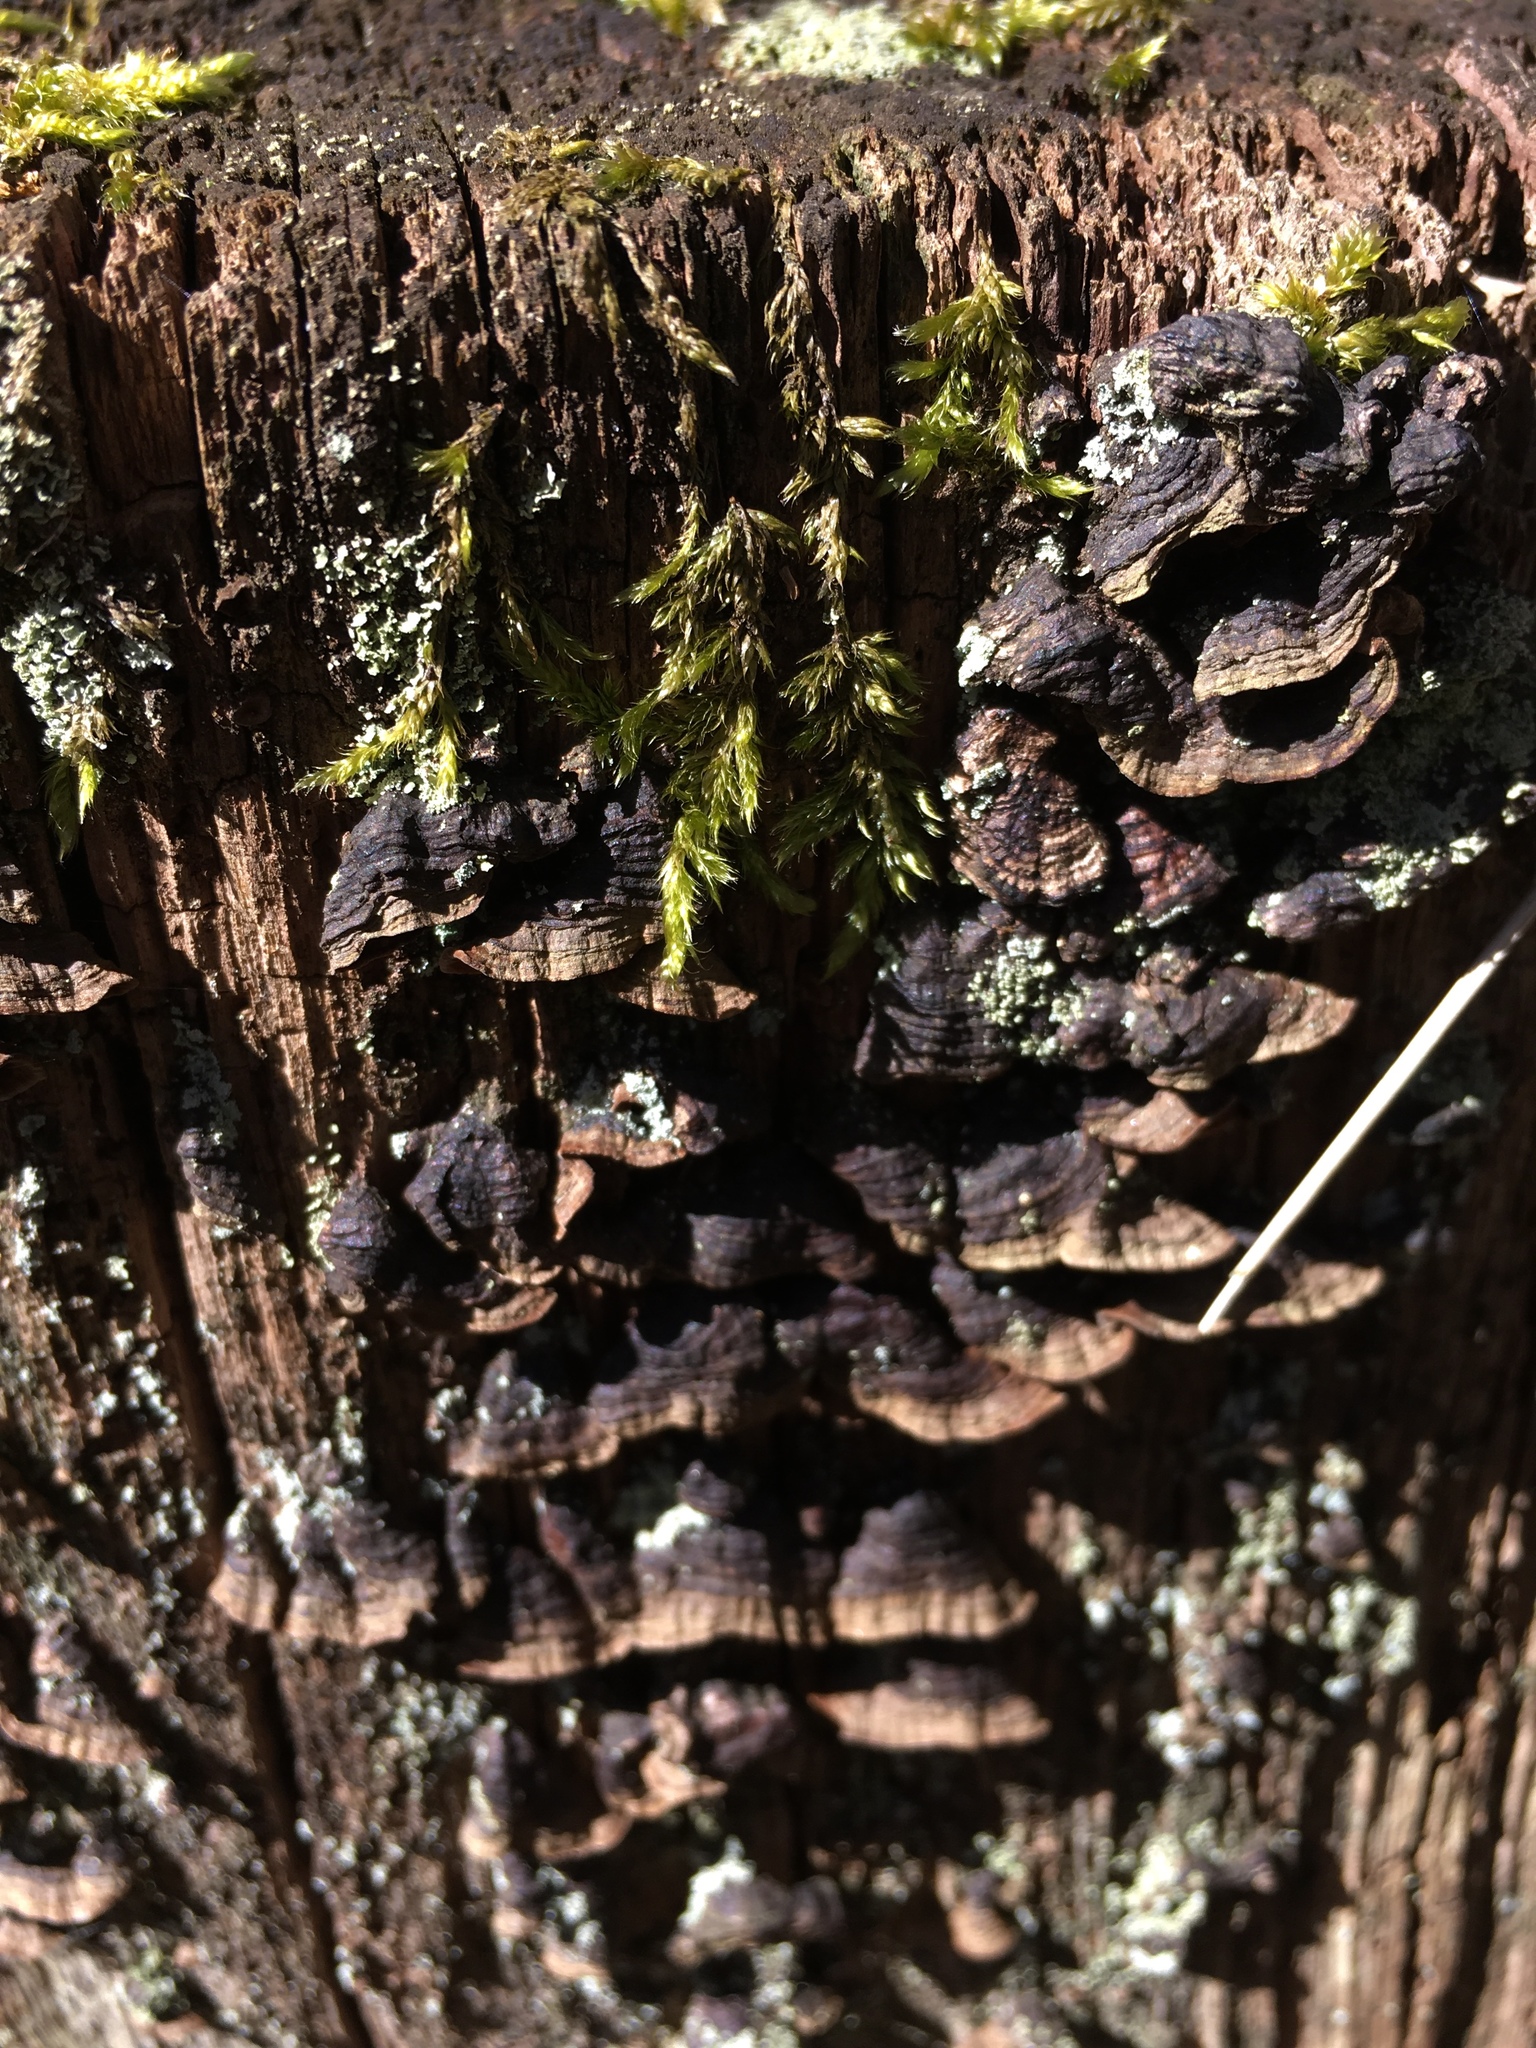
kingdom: Fungi
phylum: Basidiomycota
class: Agaricomycetes
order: Hymenochaetales
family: Hymenochaetaceae
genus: Hymenochaete
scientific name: Hymenochaete rubiginosa
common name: Oak curtain crust
